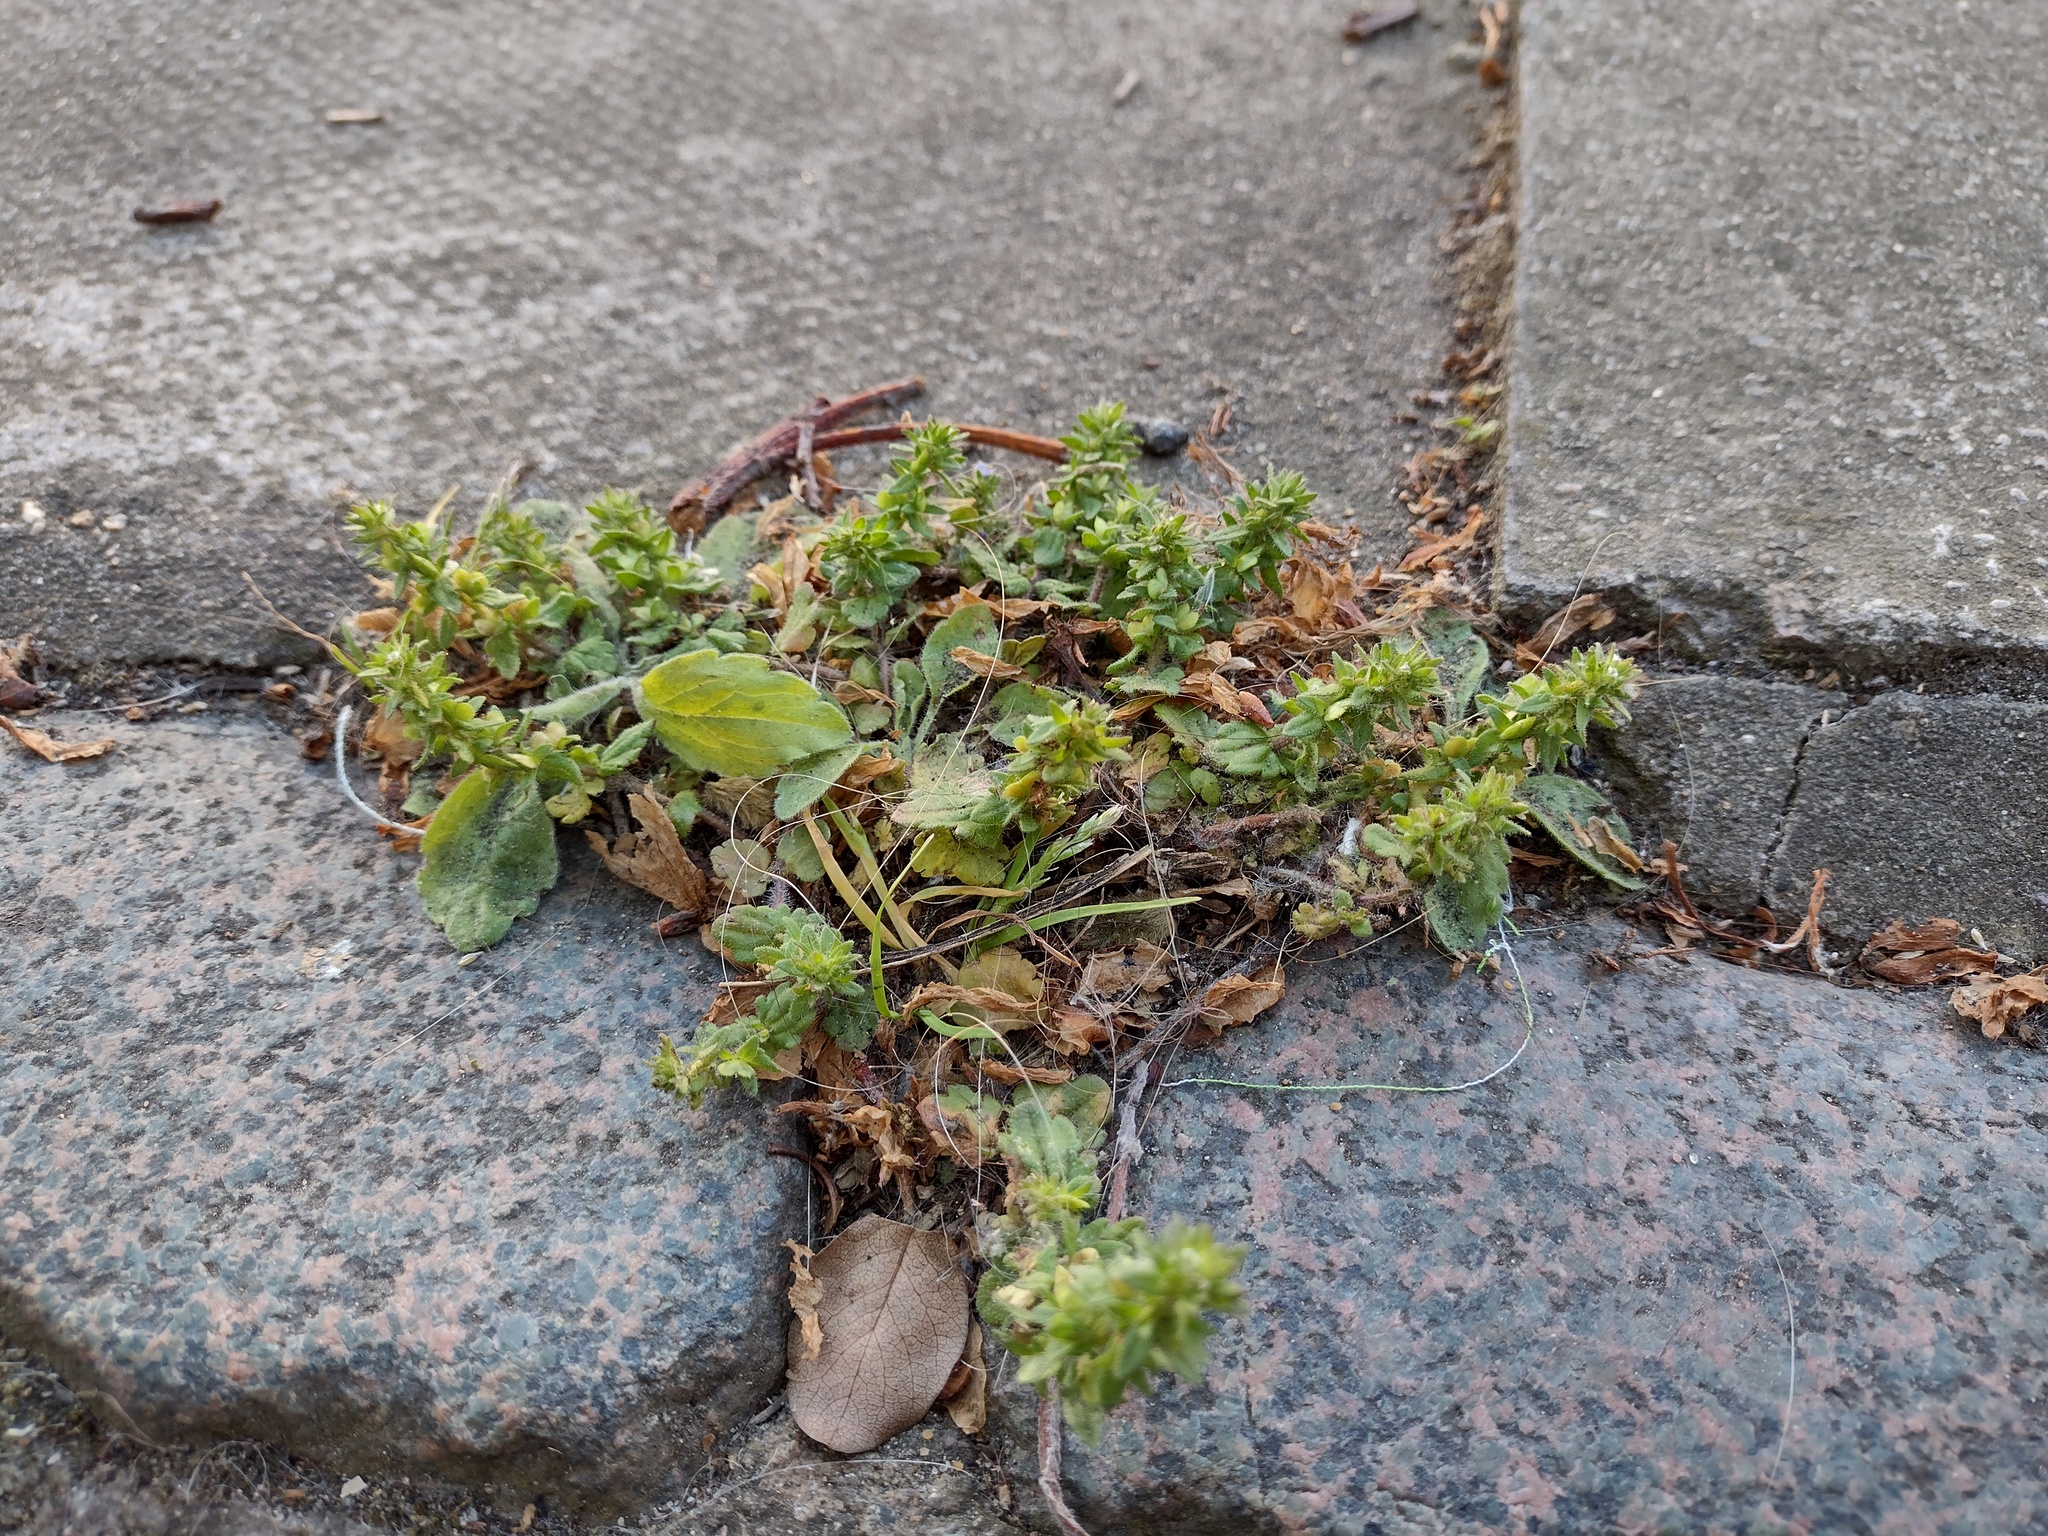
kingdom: Plantae
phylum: Tracheophyta
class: Magnoliopsida
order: Lamiales
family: Plantaginaceae
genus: Veronica
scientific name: Veronica arvensis
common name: Corn speedwell
